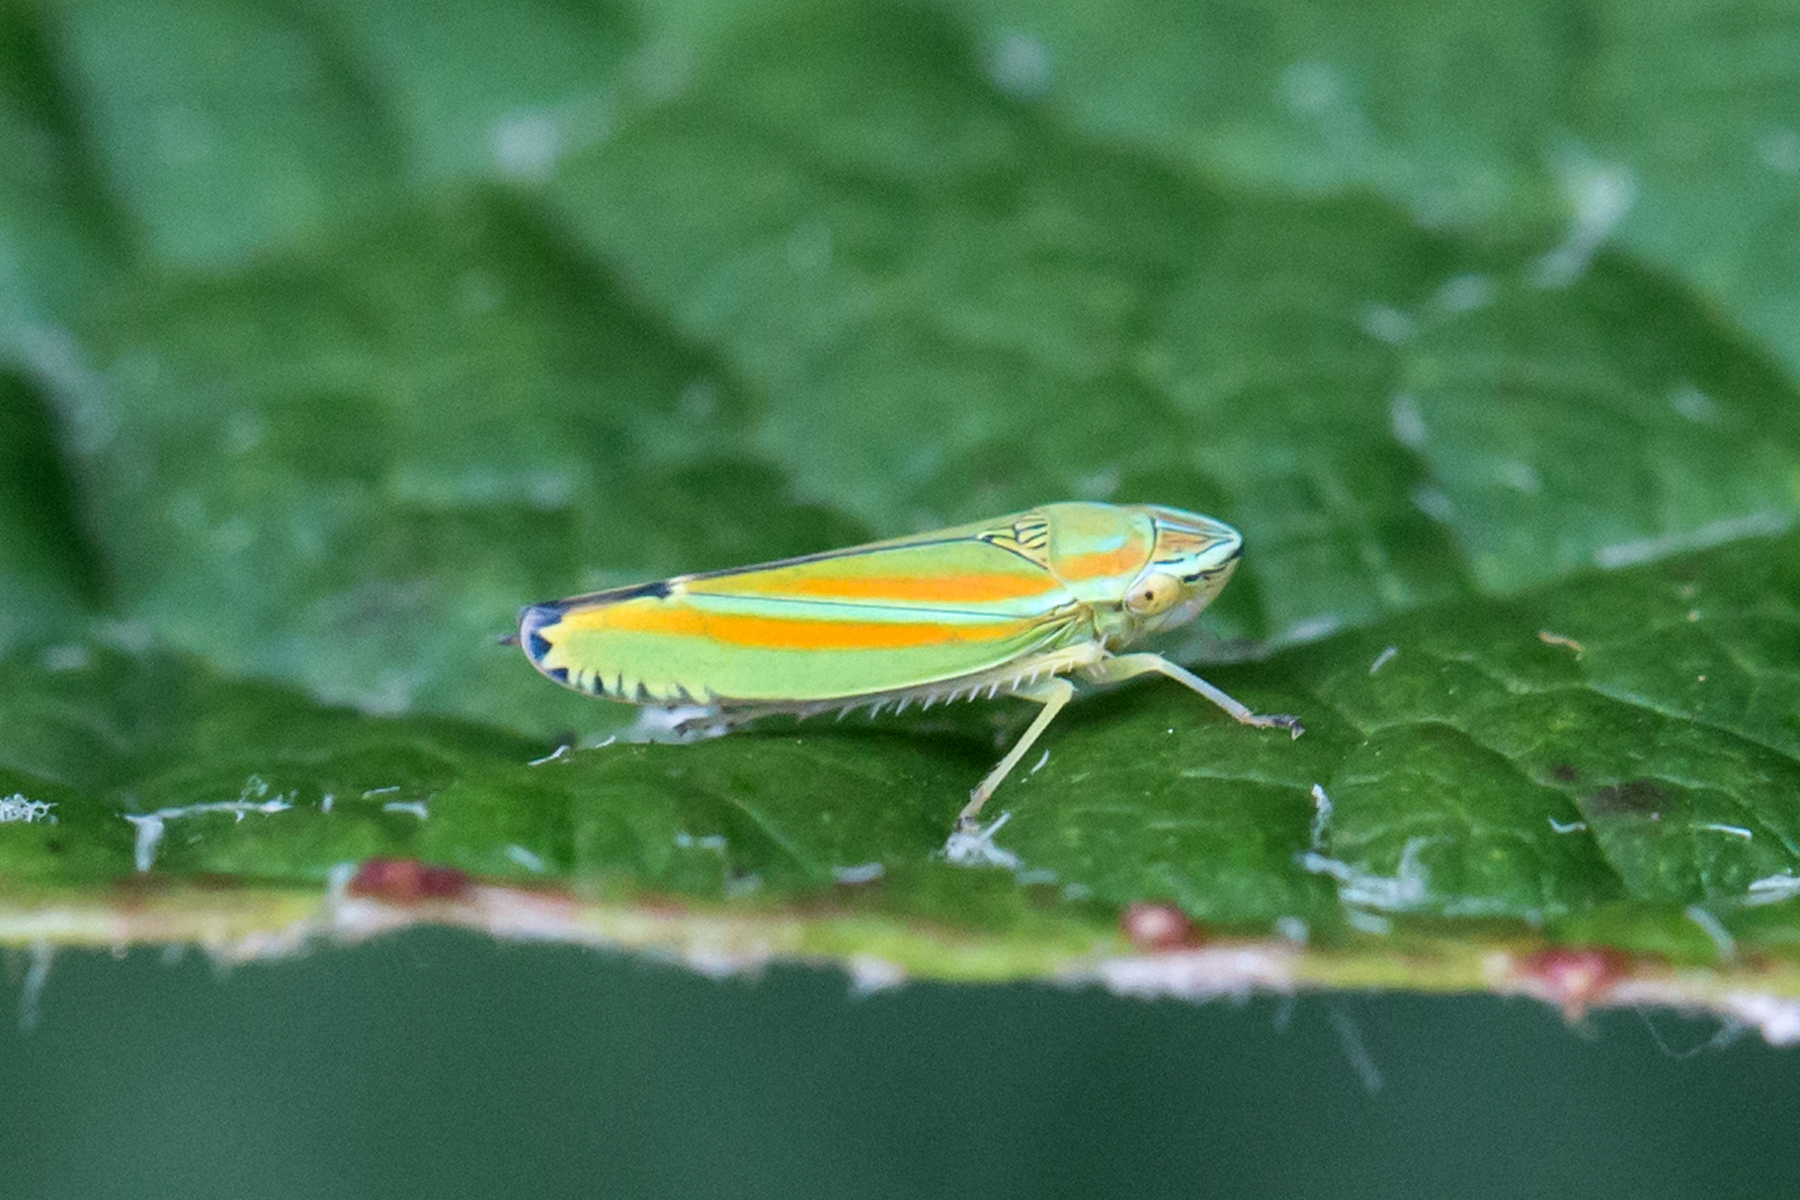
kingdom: Animalia
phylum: Arthropoda
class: Insecta
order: Hemiptera
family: Cicadellidae
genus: Graphocephala
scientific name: Graphocephala versuta
